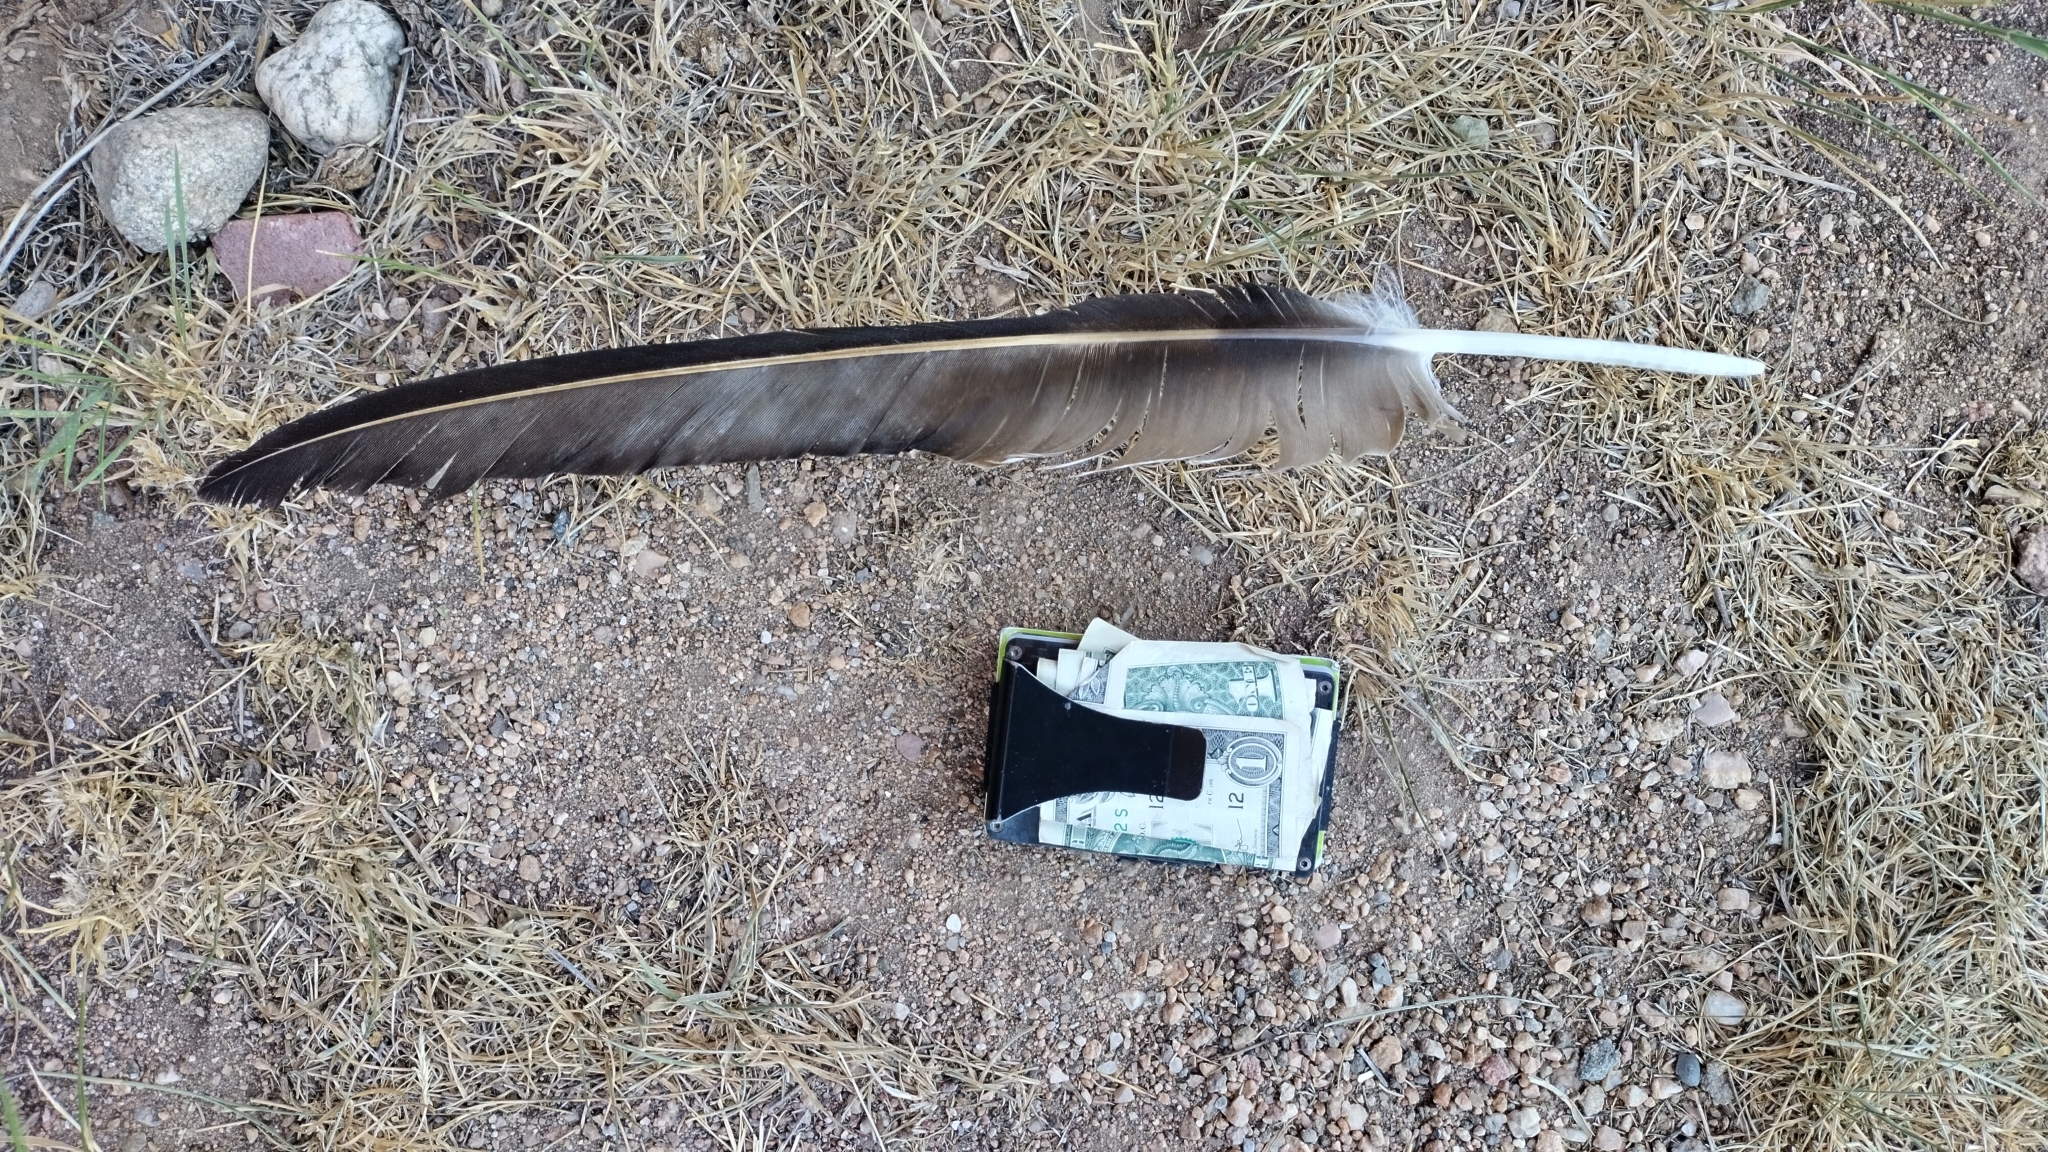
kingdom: Animalia
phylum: Chordata
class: Aves
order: Accipitriformes
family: Cathartidae
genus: Cathartes
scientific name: Cathartes aura
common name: Turkey vulture
